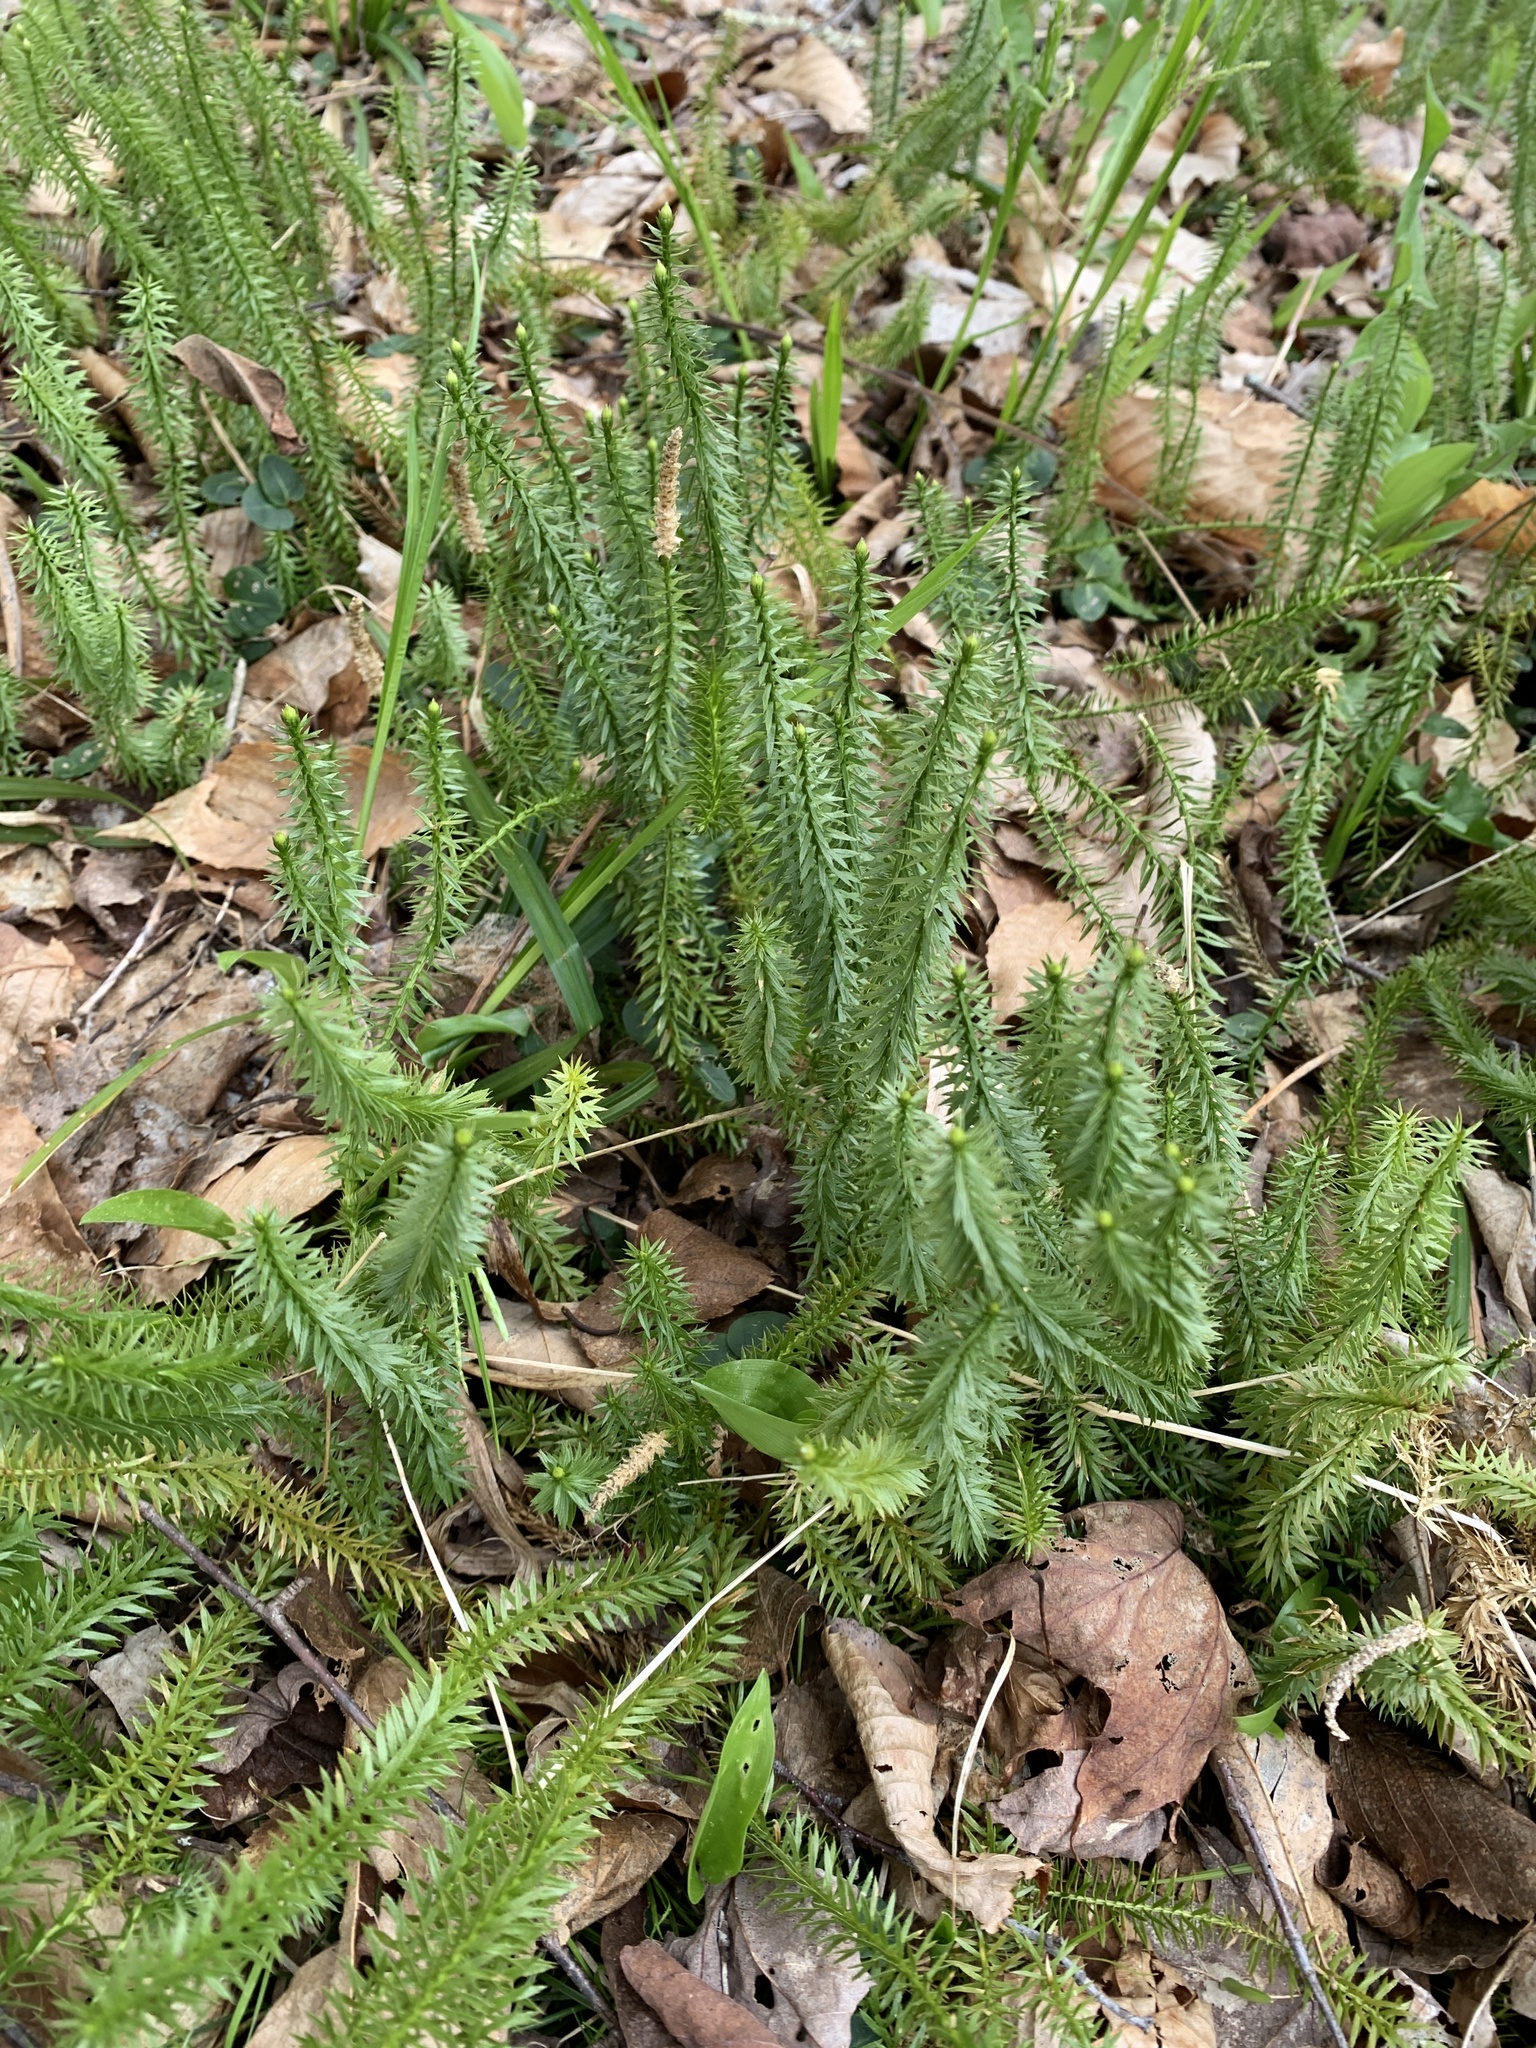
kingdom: Plantae
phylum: Tracheophyta
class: Lycopodiopsida
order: Lycopodiales
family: Lycopodiaceae
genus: Spinulum
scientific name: Spinulum annotinum
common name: Interrupted club-moss
